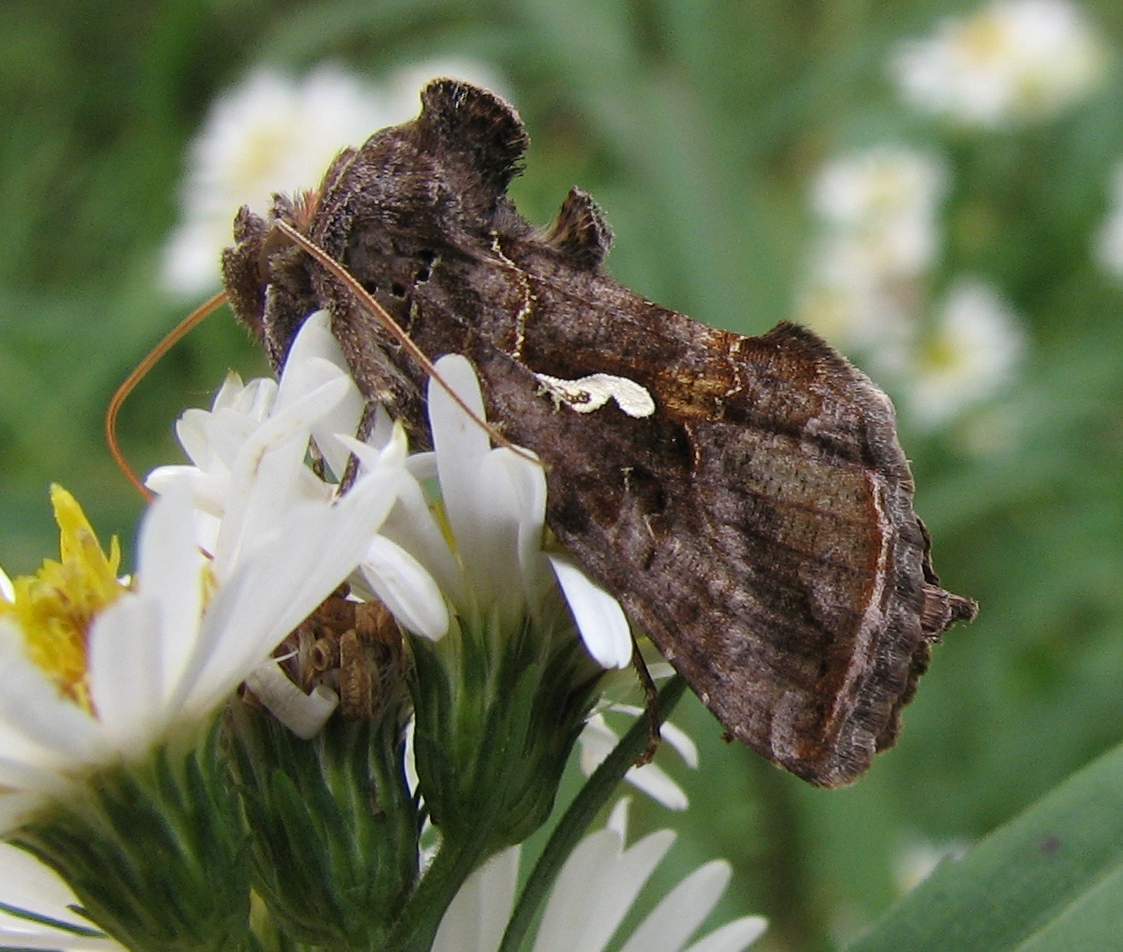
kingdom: Animalia
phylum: Arthropoda
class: Insecta
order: Lepidoptera
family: Noctuidae
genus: Autographa
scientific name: Autographa precationis
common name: Common looper moth
